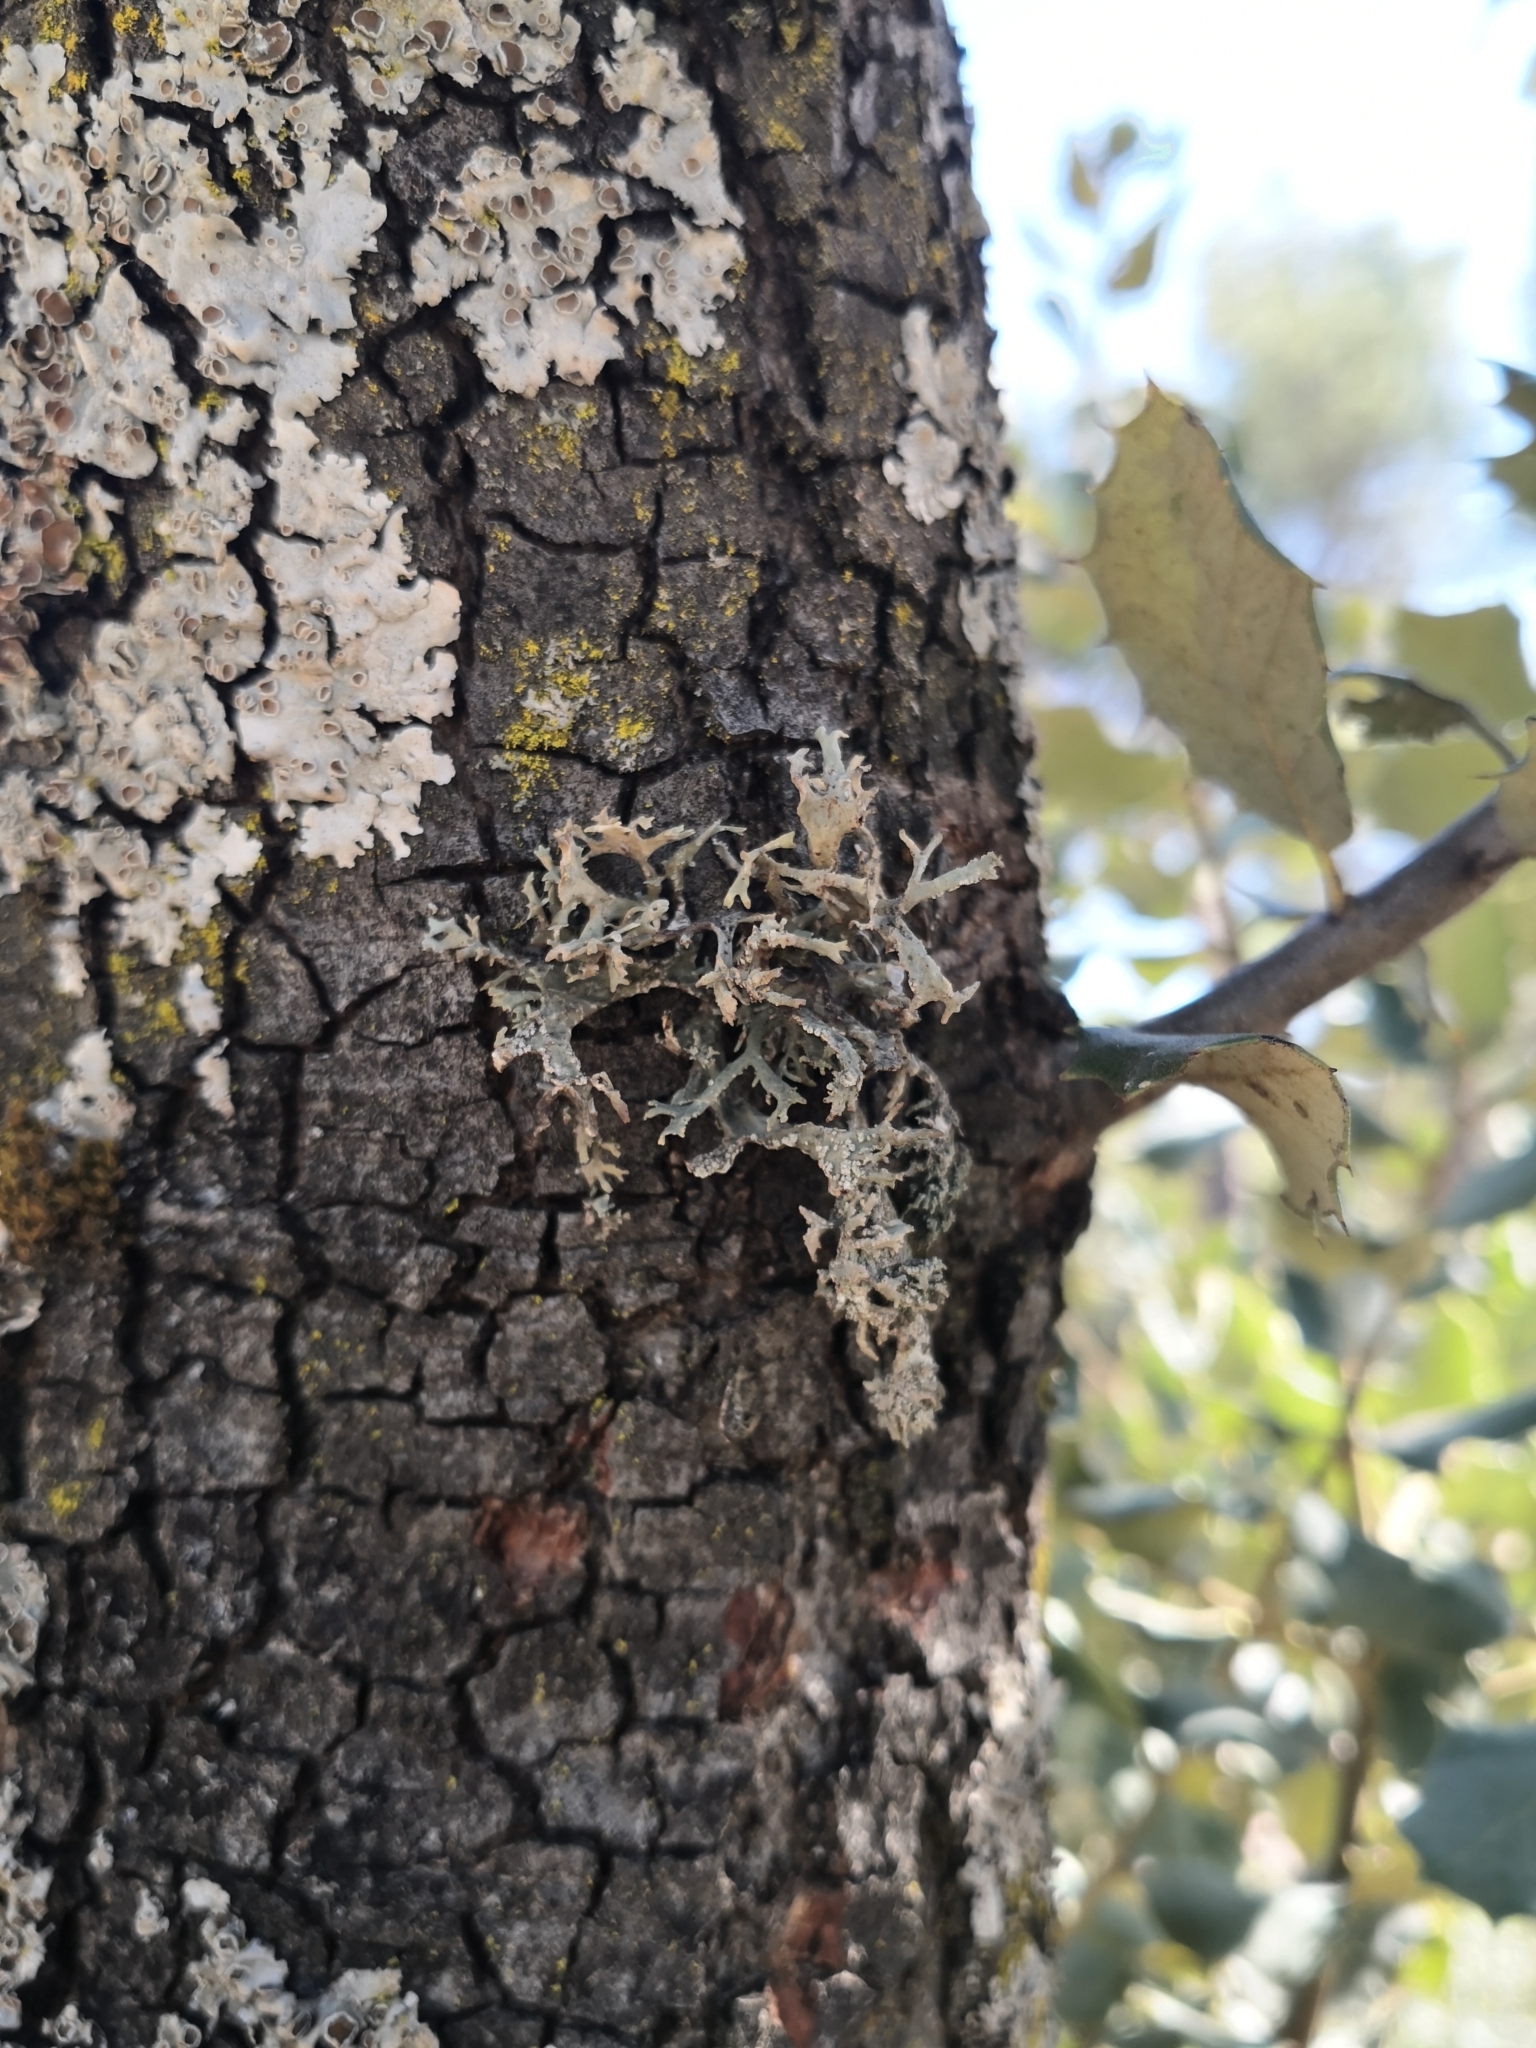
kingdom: Fungi
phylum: Ascomycota
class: Lecanoromycetes
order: Lecanorales
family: Parmeliaceae
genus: Evernia
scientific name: Evernia prunastri
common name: Oak moss
